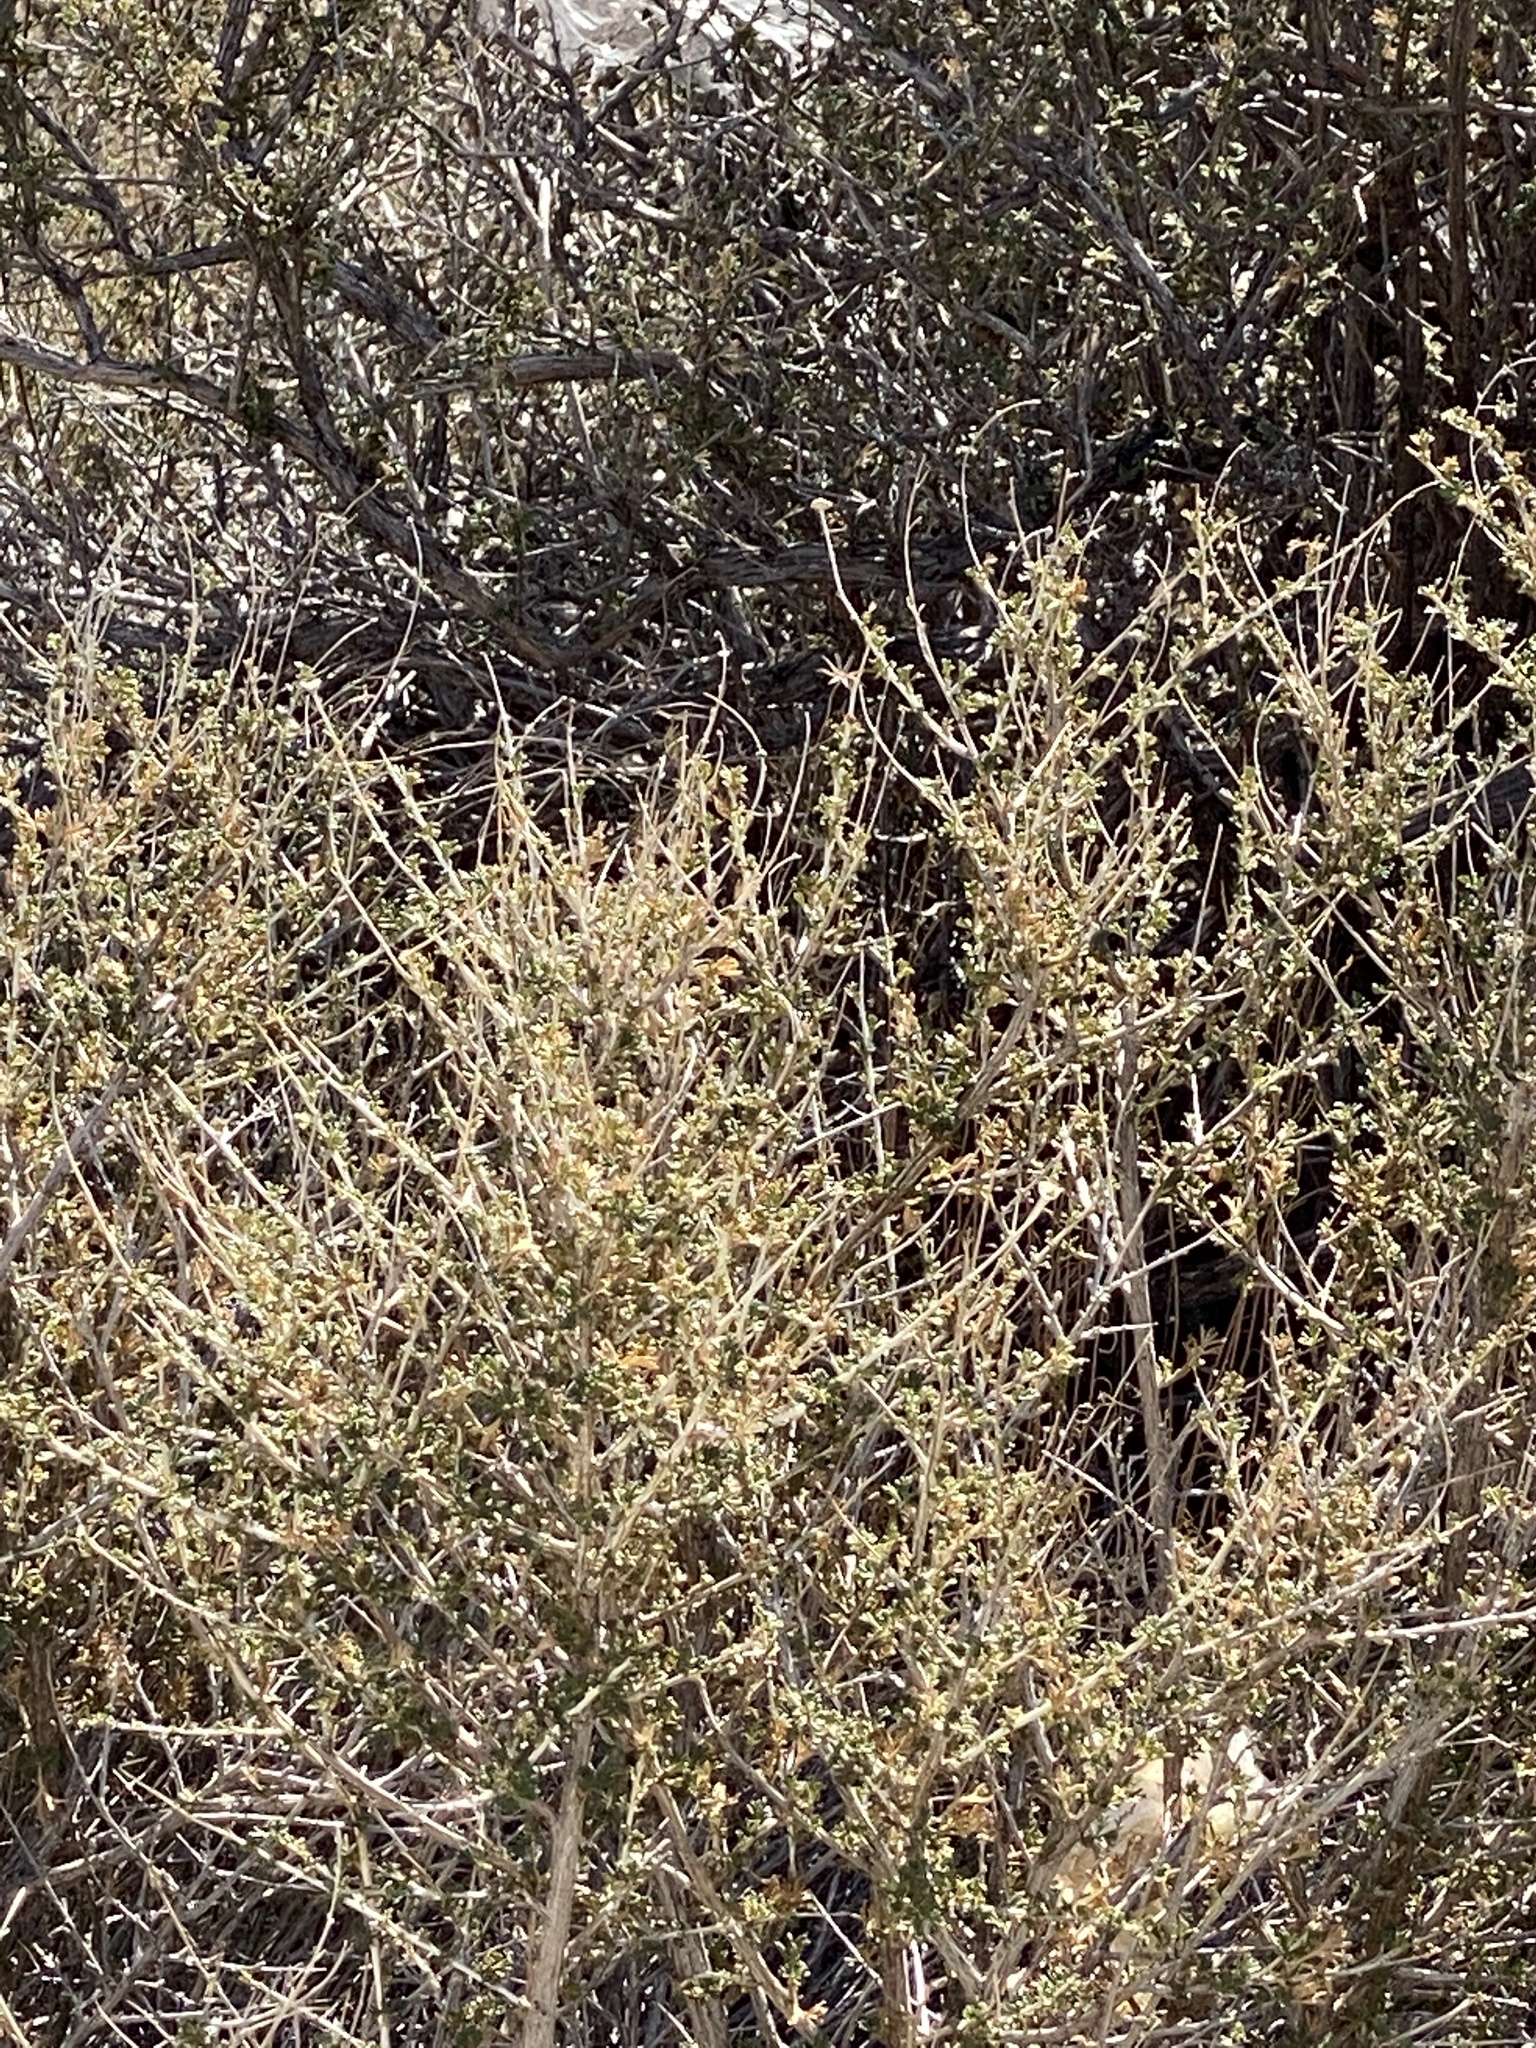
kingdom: Plantae
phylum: Tracheophyta
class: Magnoliopsida
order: Rosales
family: Rosaceae
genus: Fallugia
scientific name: Fallugia paradoxa
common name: Apache-plume
